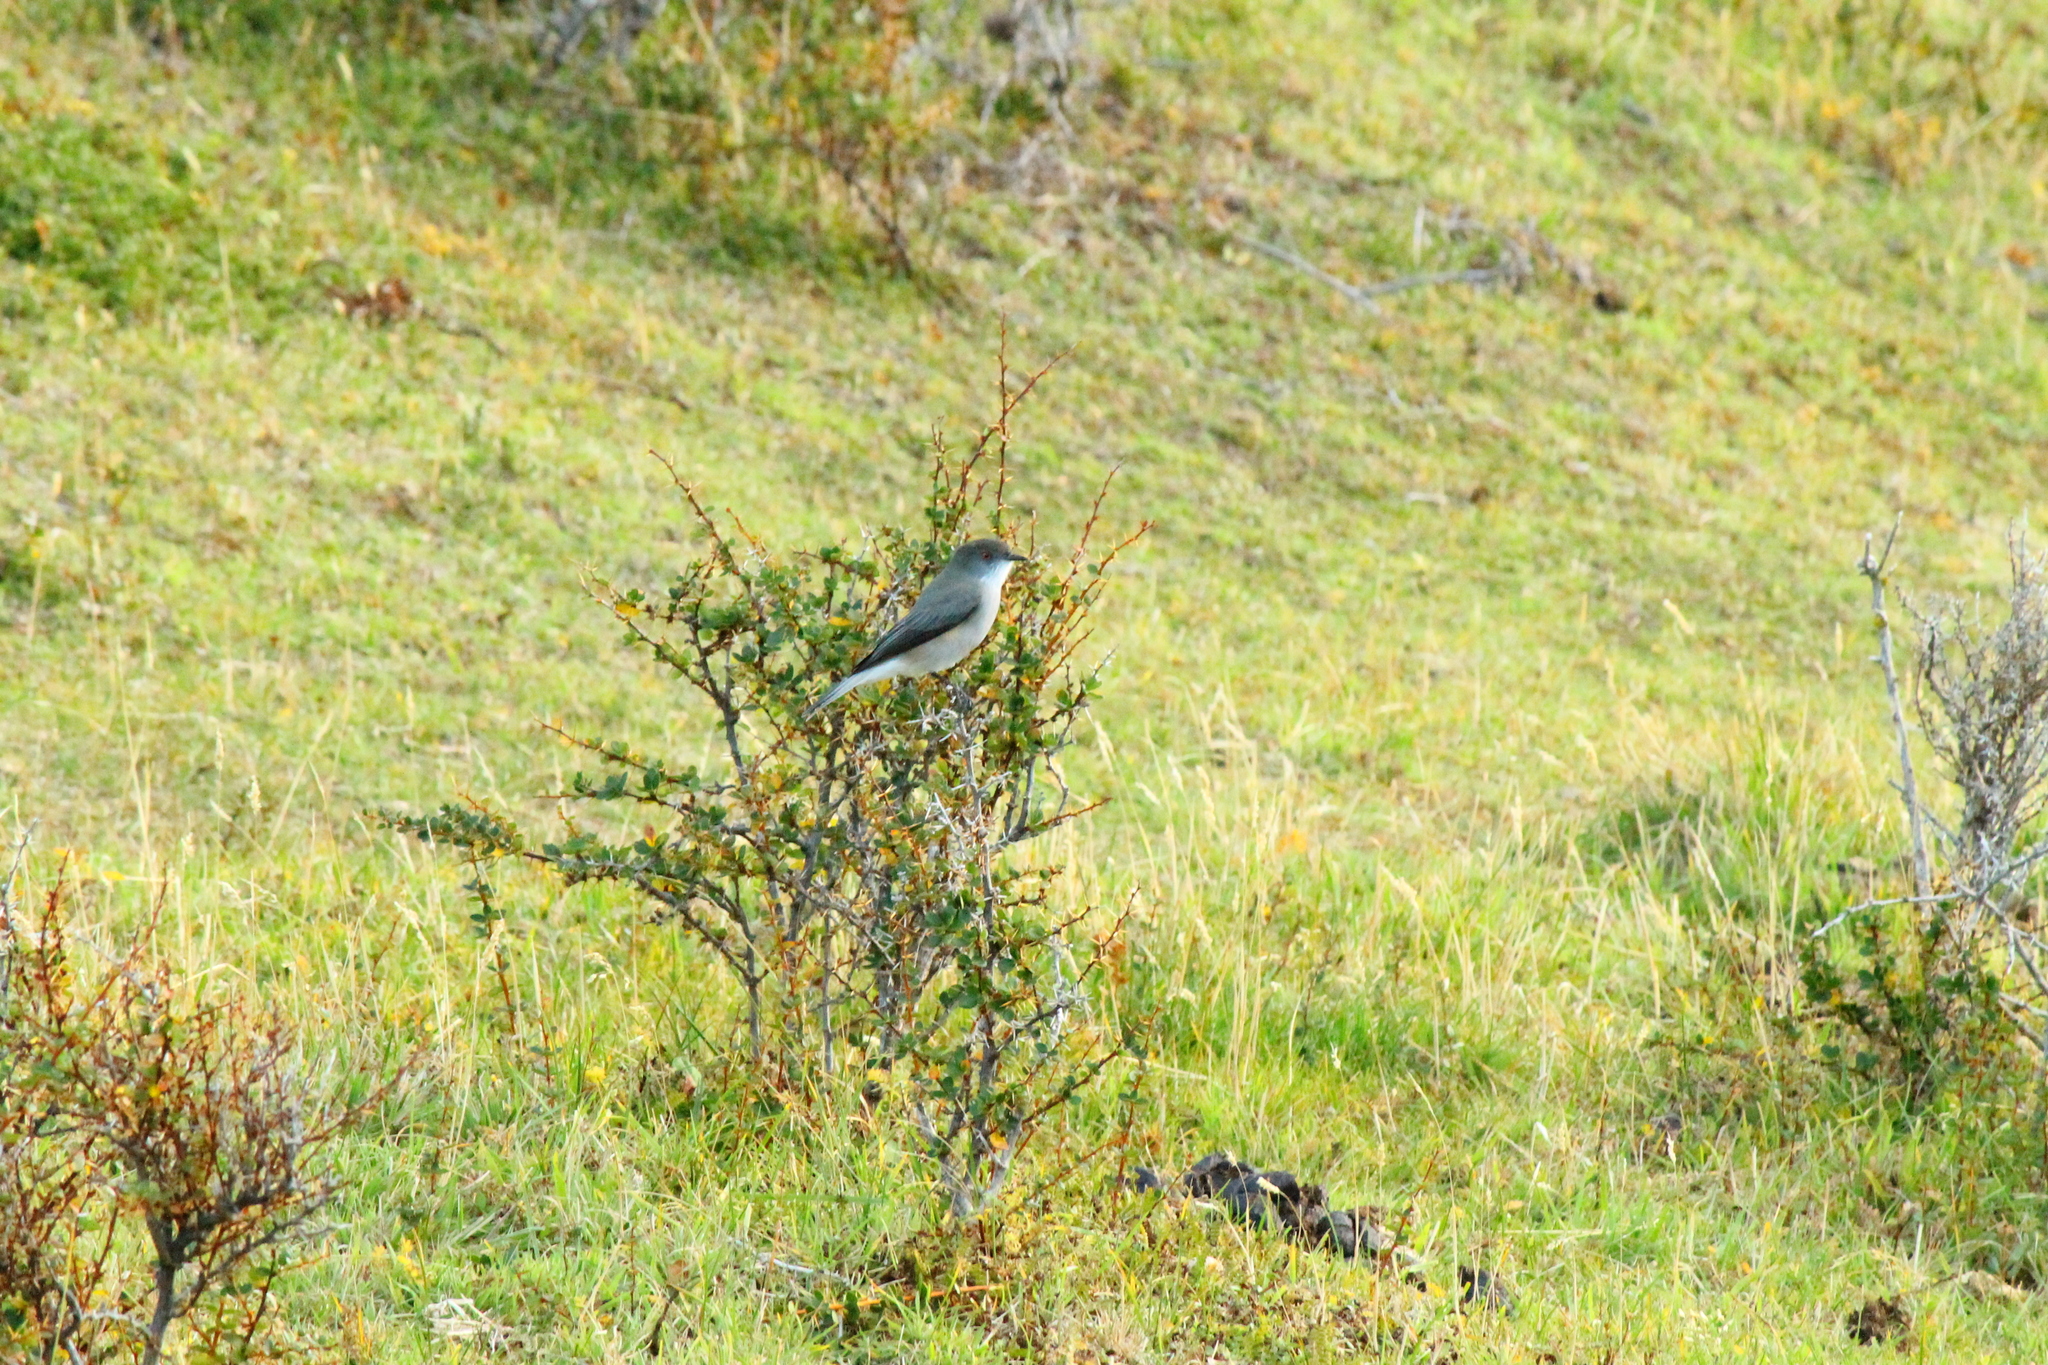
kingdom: Animalia
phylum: Chordata
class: Aves
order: Passeriformes
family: Tyrannidae
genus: Xolmis
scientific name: Xolmis pyrope
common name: Fire-eyed diucon
